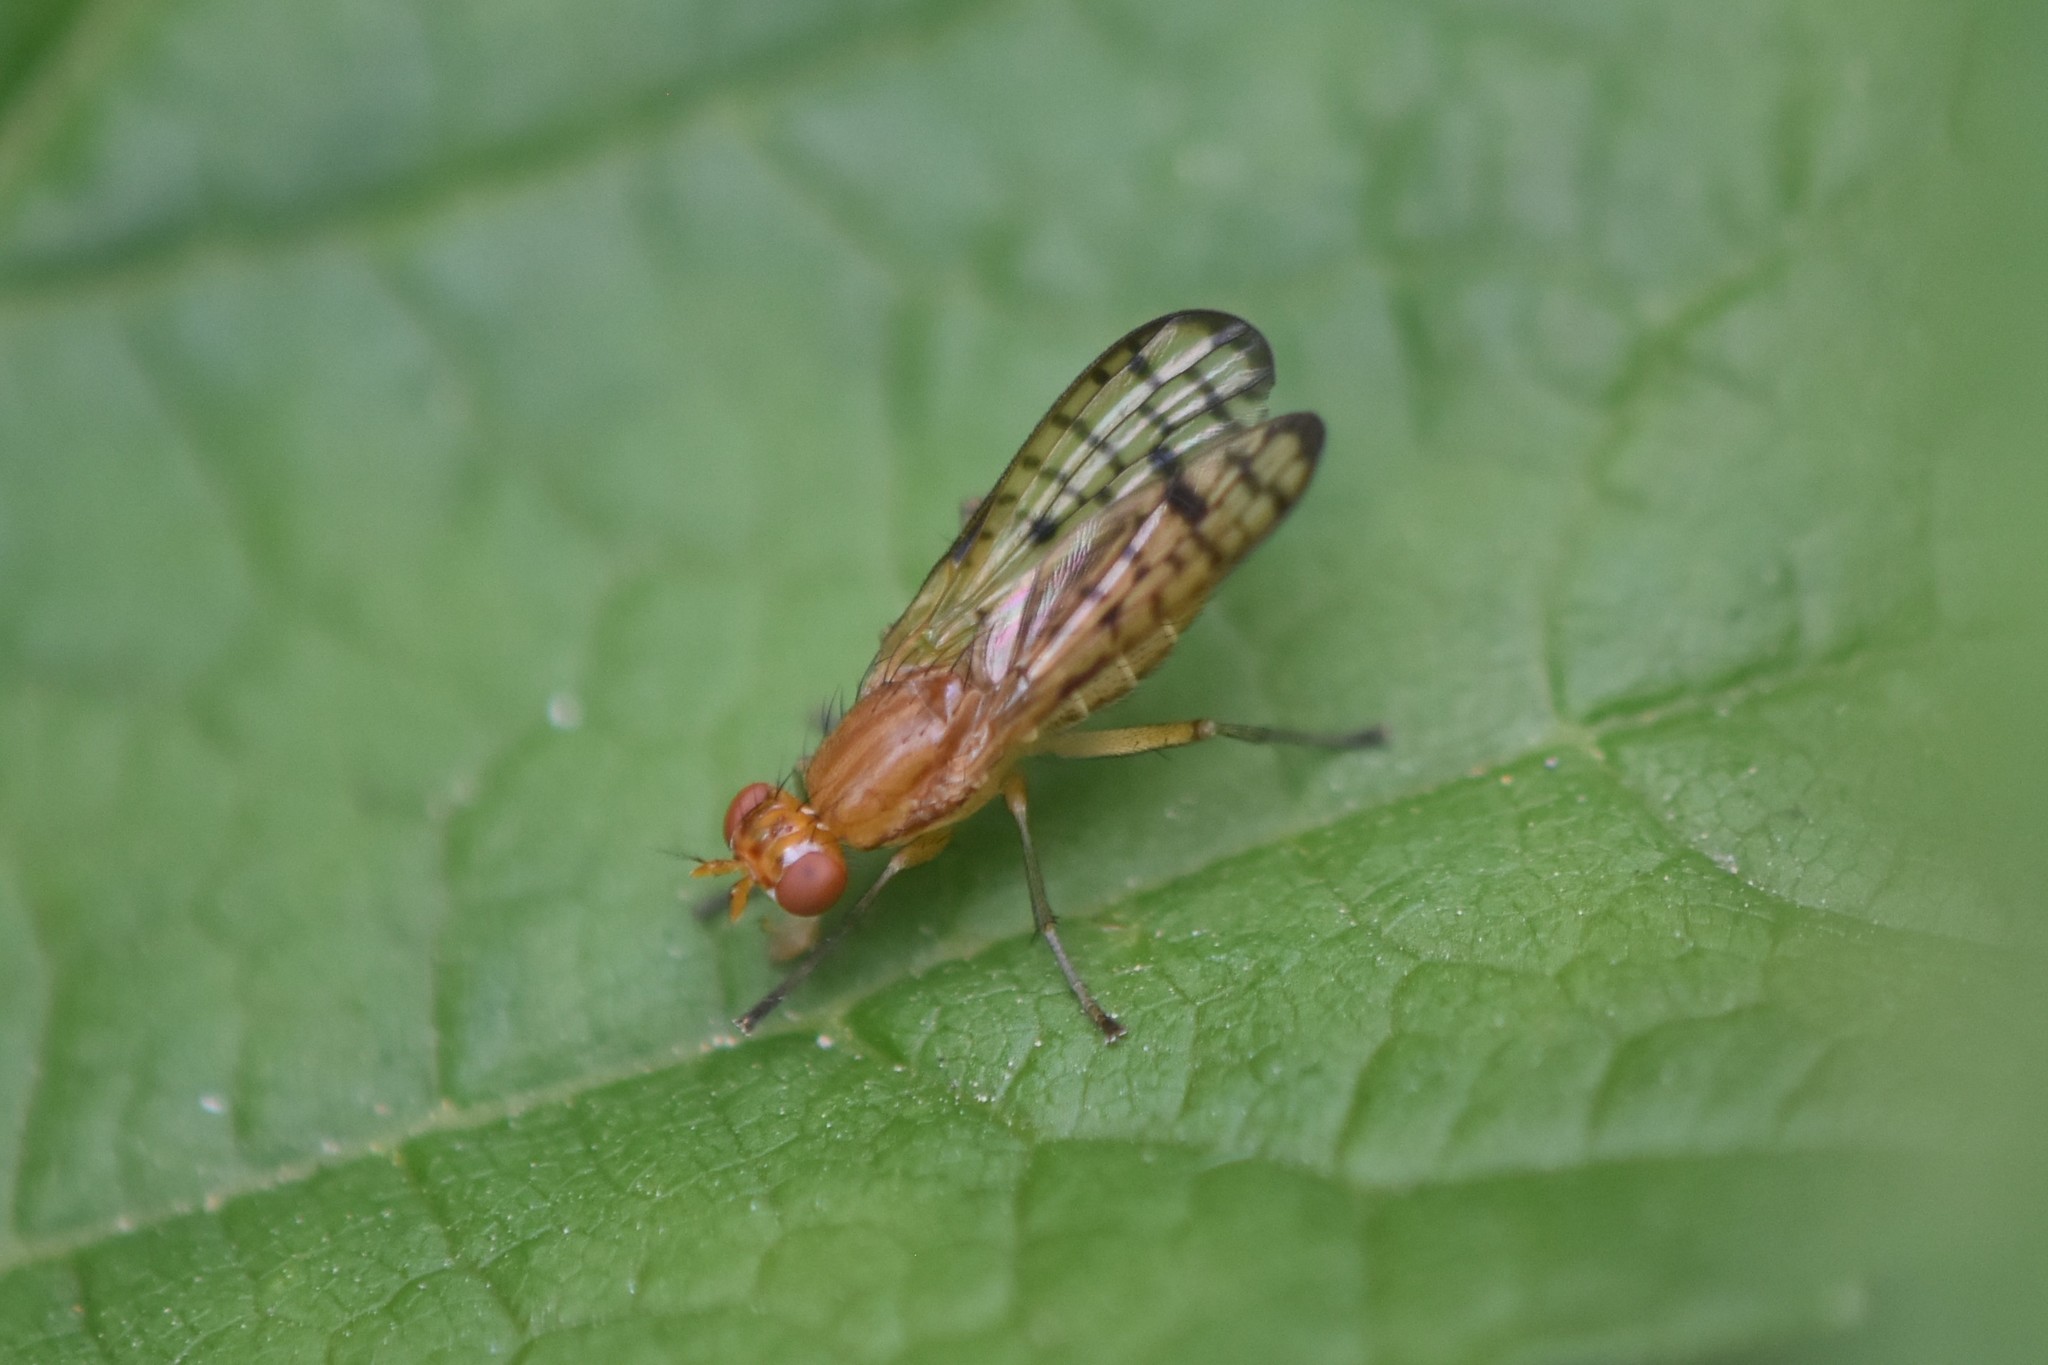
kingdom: Animalia
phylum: Arthropoda
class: Insecta
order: Diptera
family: Sciomyzidae
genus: Tetanocera
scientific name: Tetanocera valida
